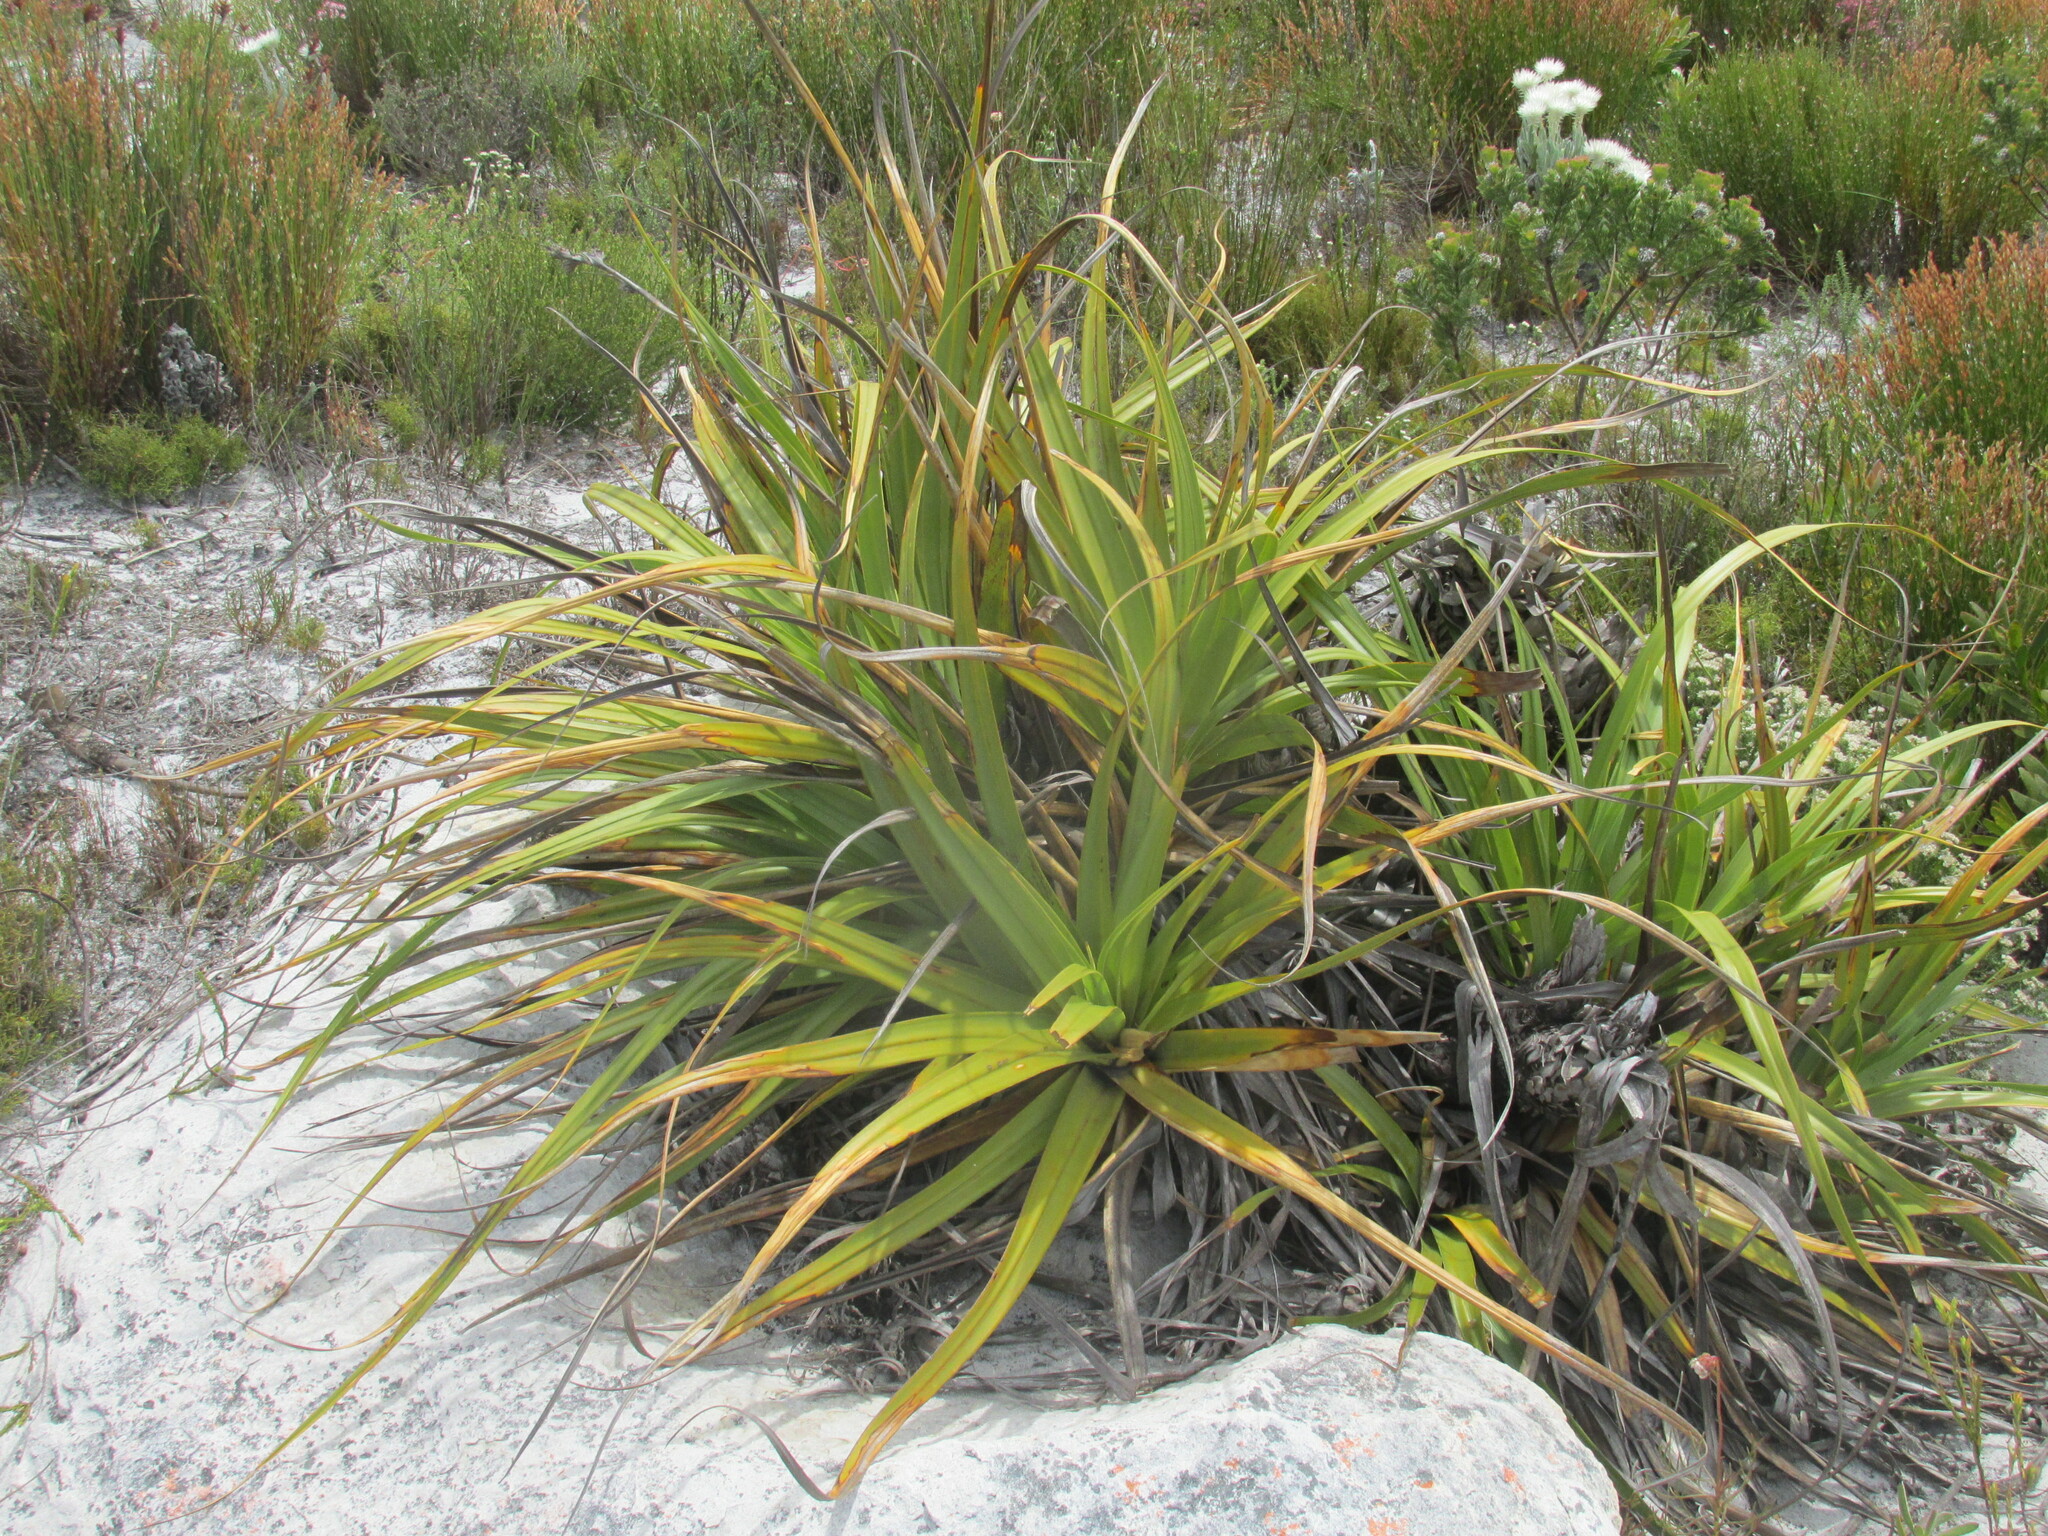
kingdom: Plantae
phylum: Tracheophyta
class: Liliopsida
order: Poales
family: Cyperaceae
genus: Tetraria
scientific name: Tetraria thermalis
